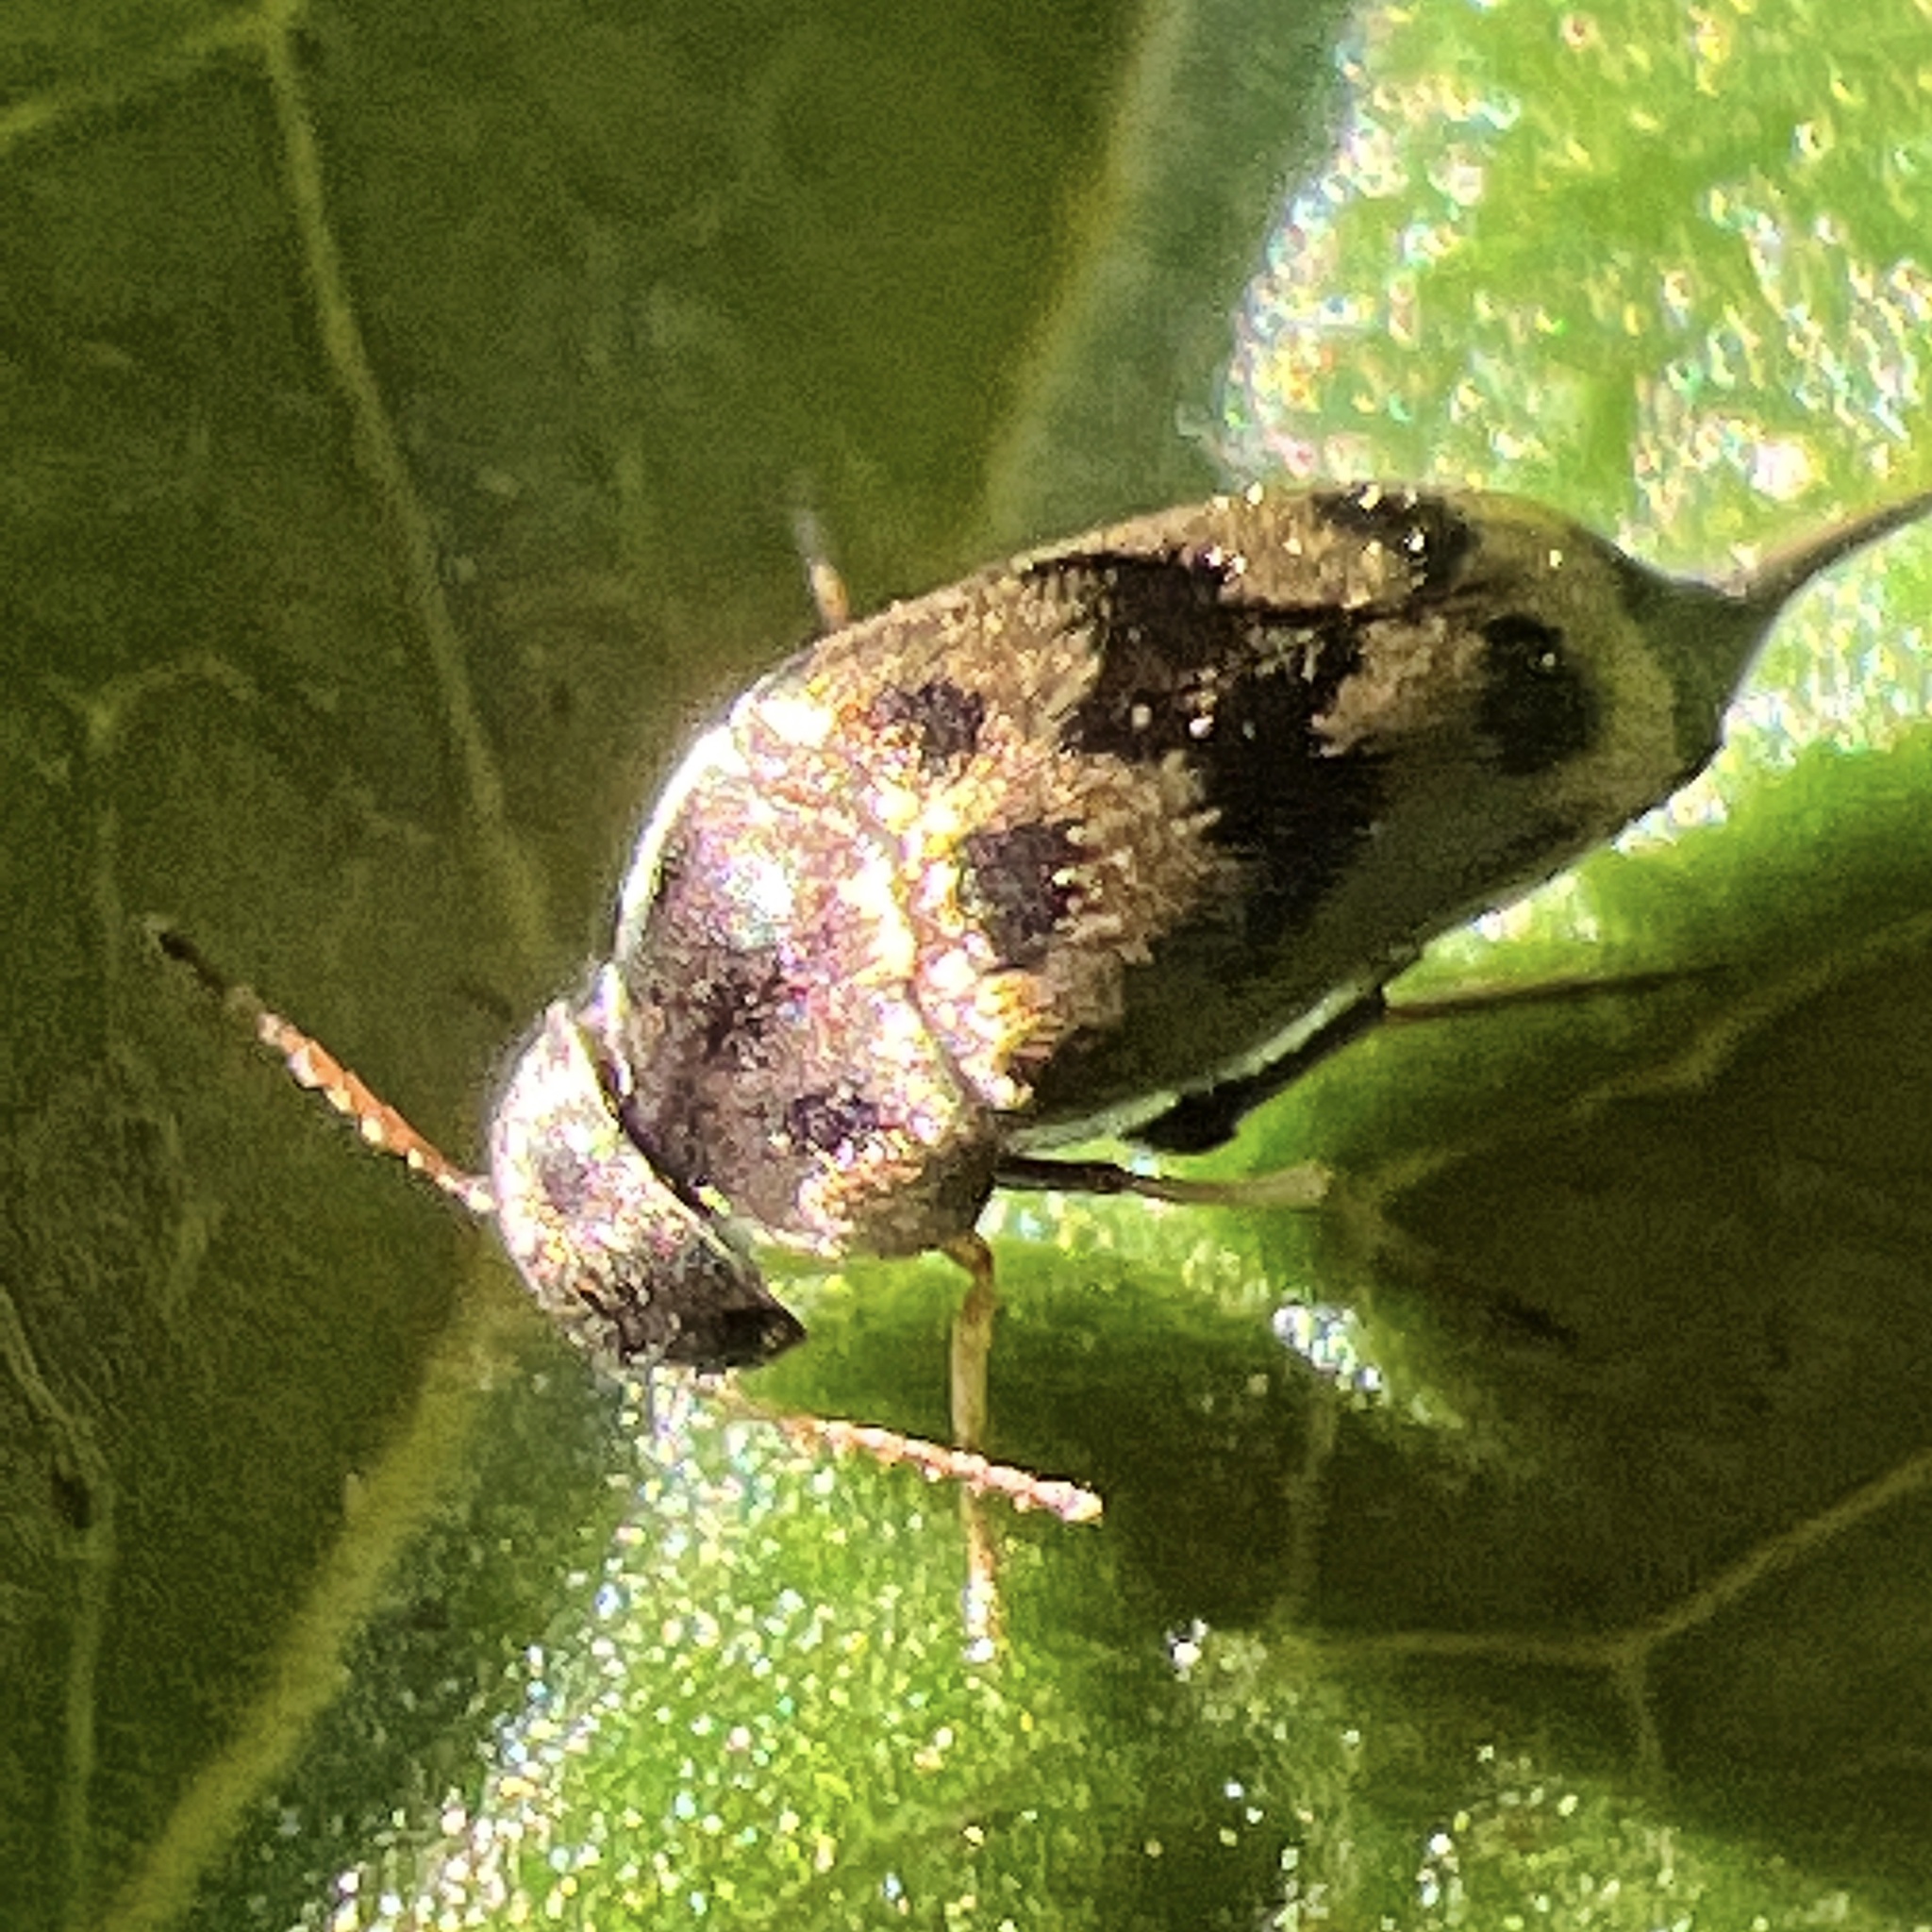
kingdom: Animalia
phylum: Arthropoda
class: Insecta
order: Coleoptera
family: Mordellidae
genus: Paramordellaria
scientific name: Paramordellaria triloba
